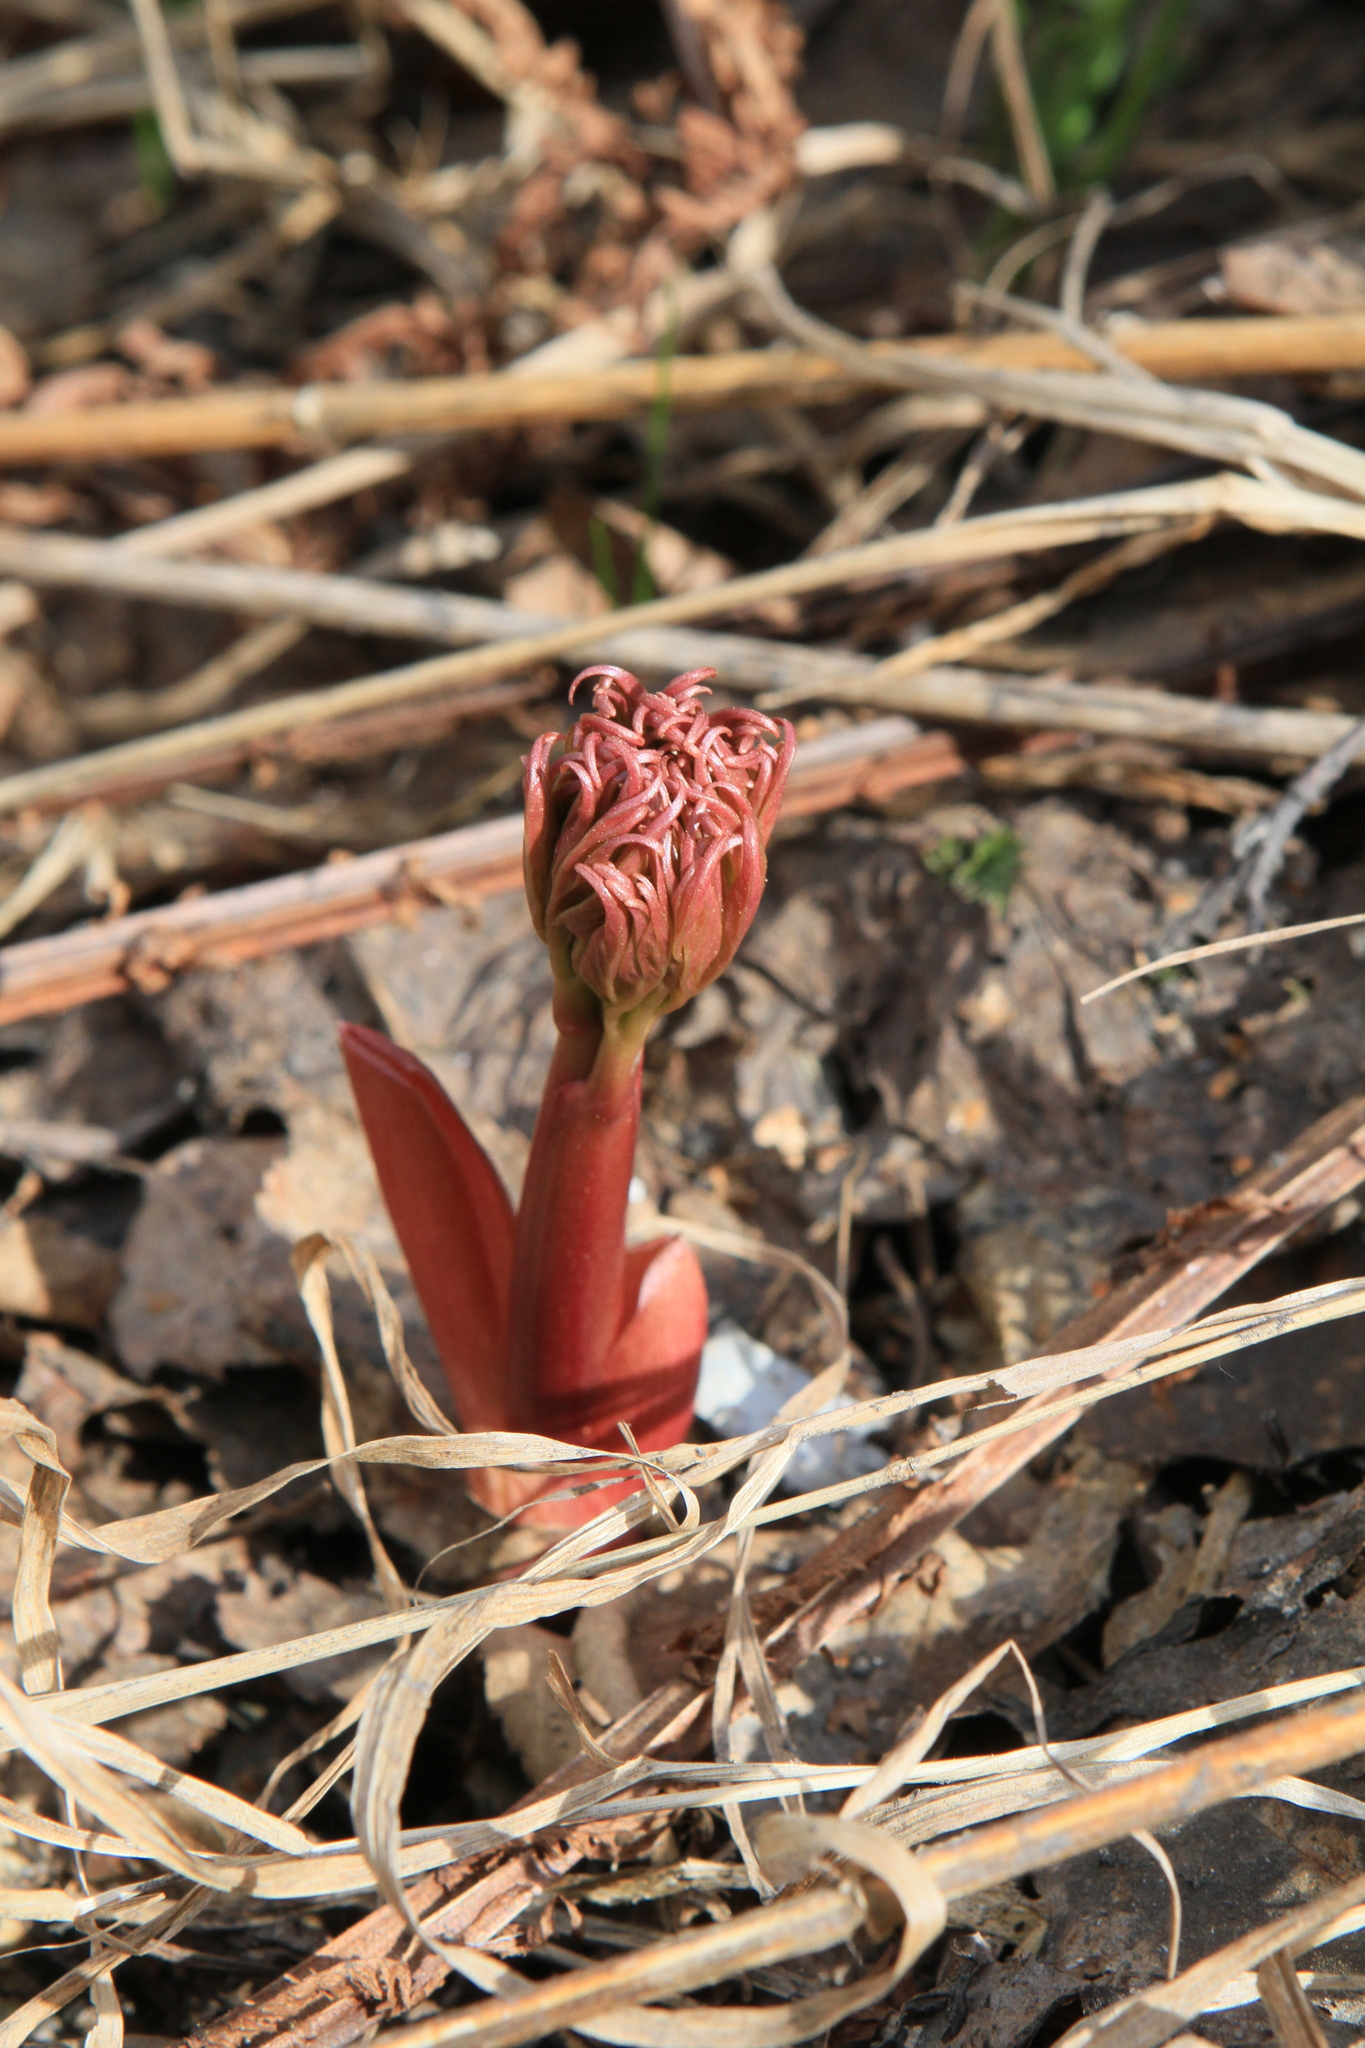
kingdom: Plantae
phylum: Tracheophyta
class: Magnoliopsida
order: Saxifragales
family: Paeoniaceae
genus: Paeonia
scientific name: Paeonia anomala
